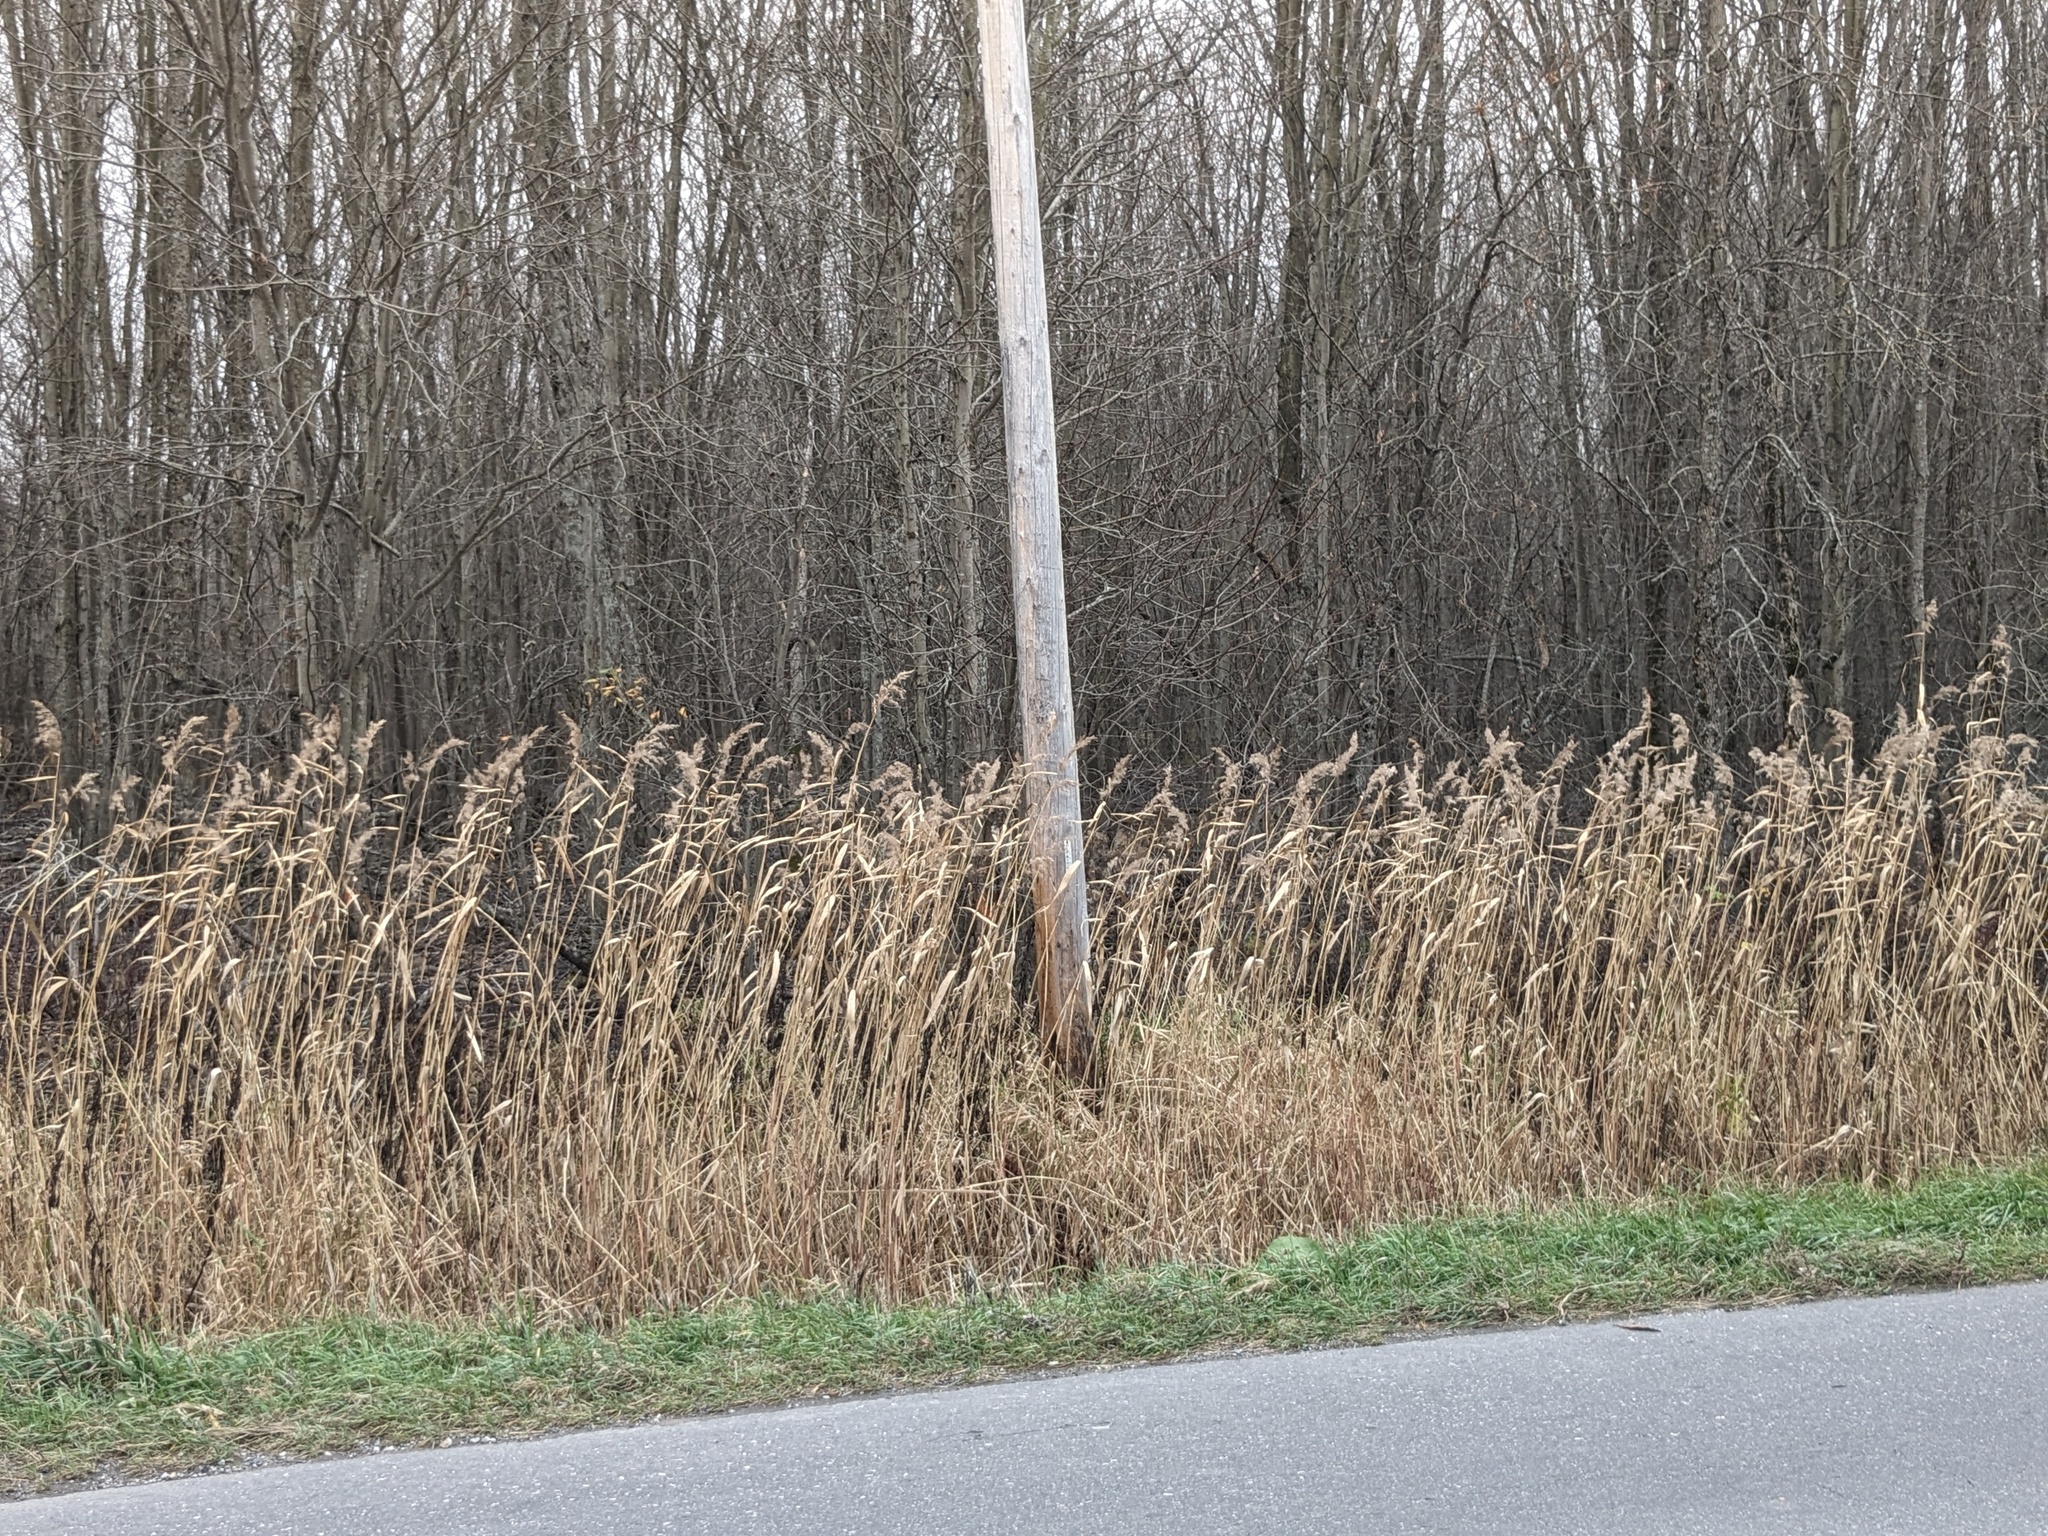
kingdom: Plantae
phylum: Tracheophyta
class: Liliopsida
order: Poales
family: Poaceae
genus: Phragmites
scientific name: Phragmites australis
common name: Common reed
